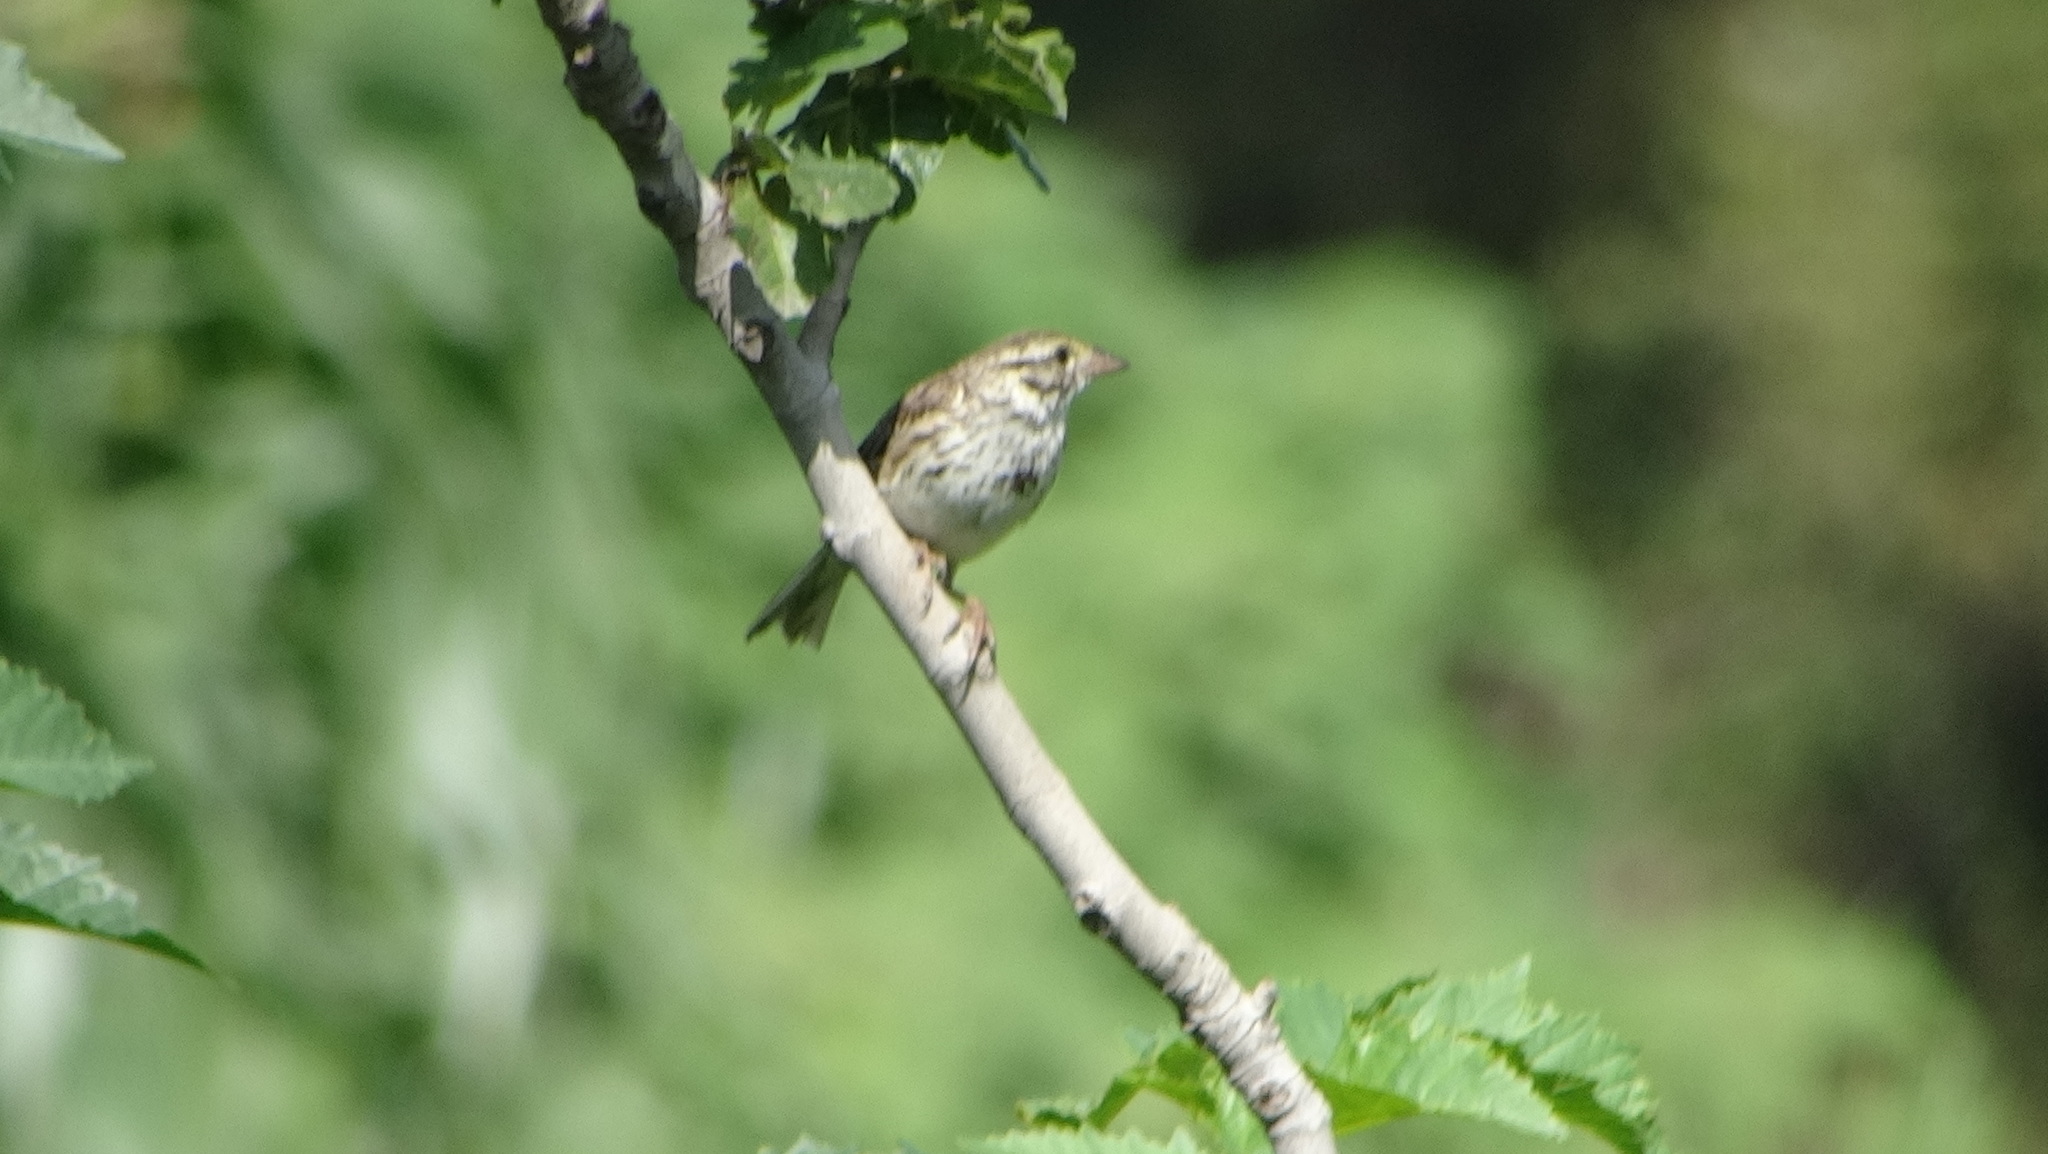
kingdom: Animalia
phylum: Chordata
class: Aves
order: Passeriformes
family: Passerellidae
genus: Melospiza
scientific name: Melospiza melodia
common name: Song sparrow
